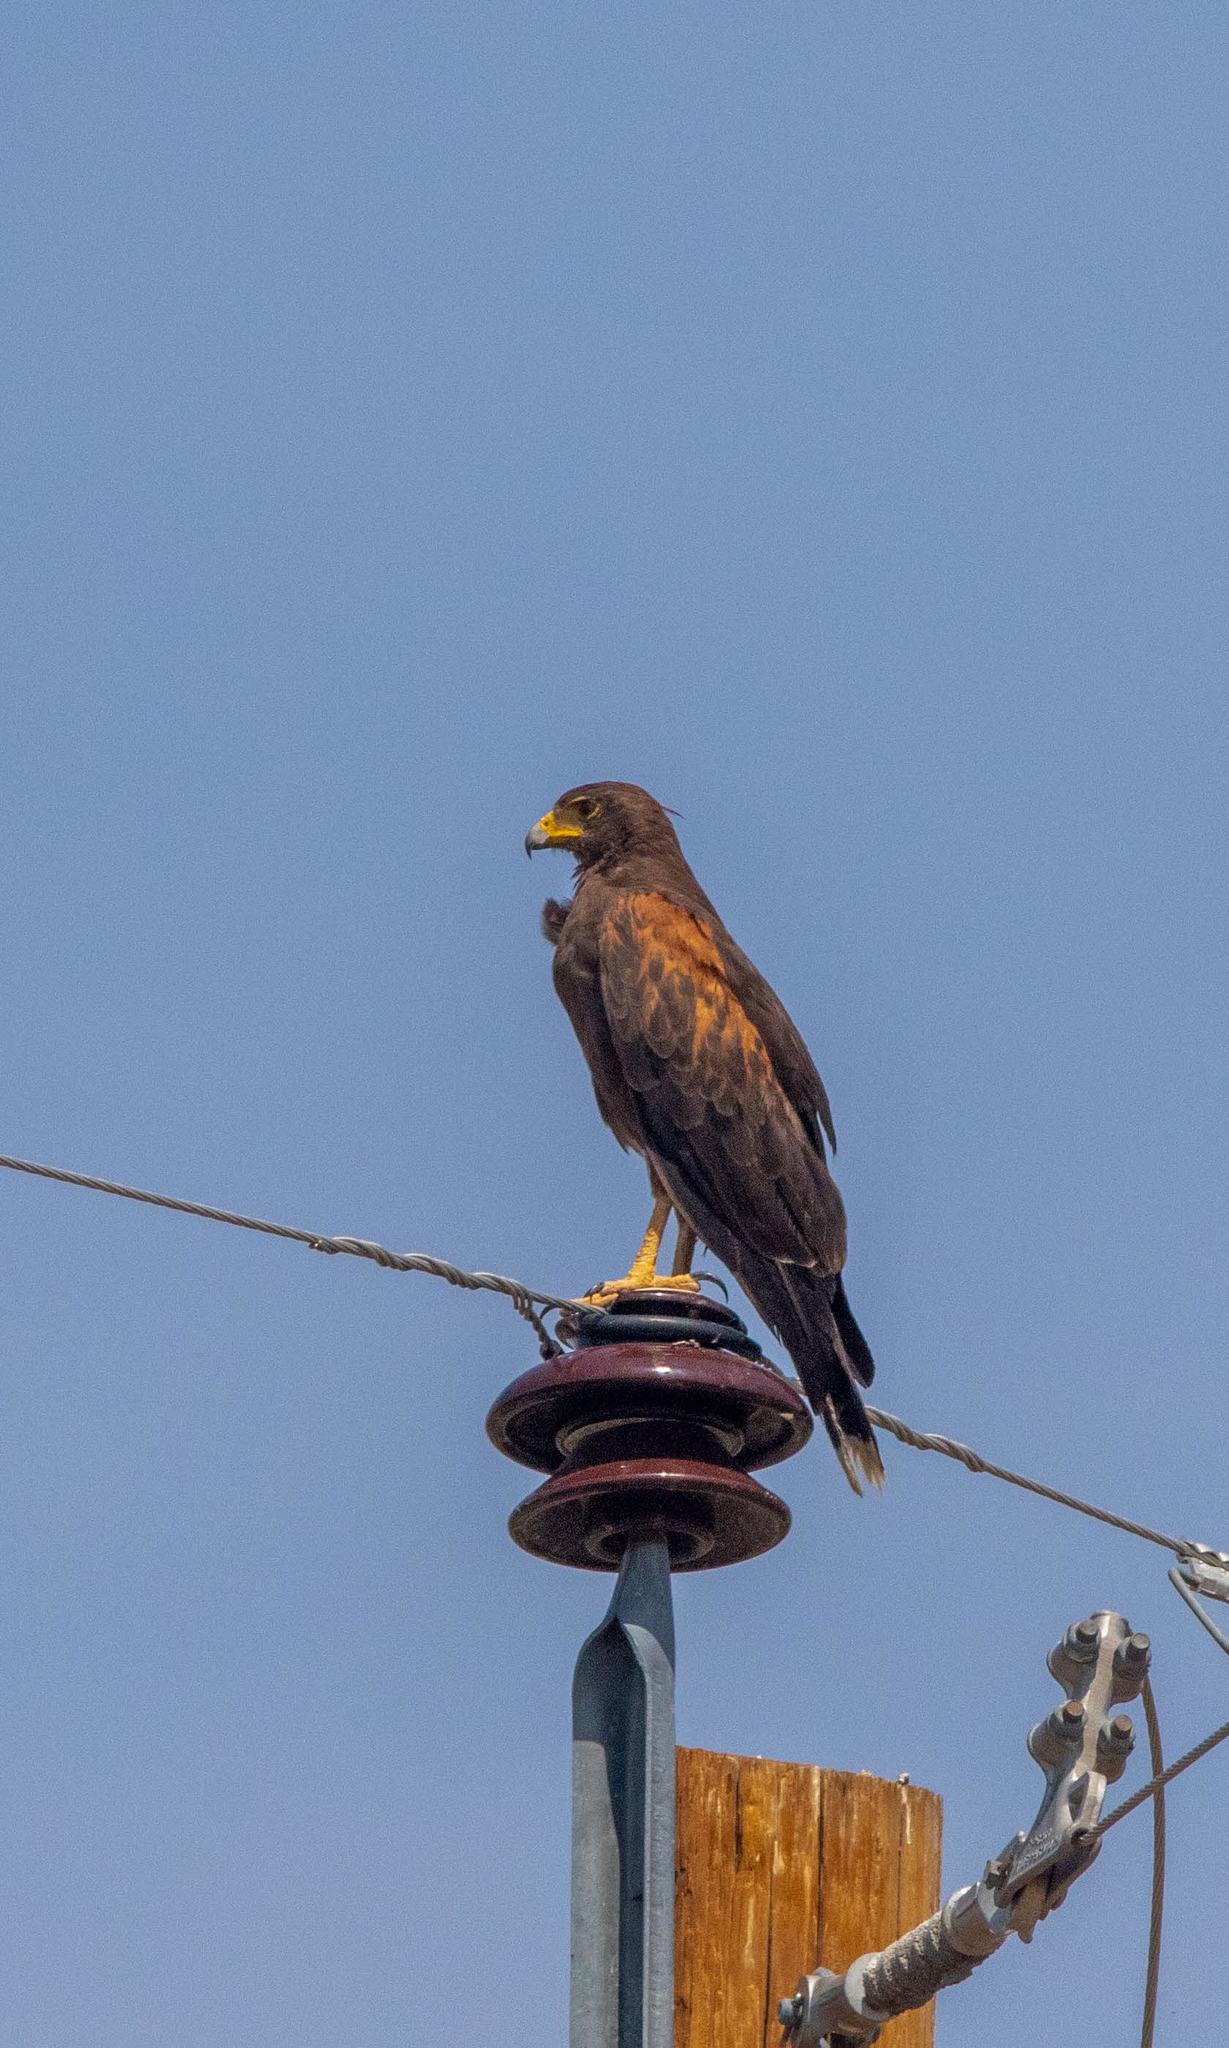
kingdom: Animalia
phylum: Chordata
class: Aves
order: Accipitriformes
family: Accipitridae
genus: Parabuteo
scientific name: Parabuteo unicinctus
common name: Harris's hawk
